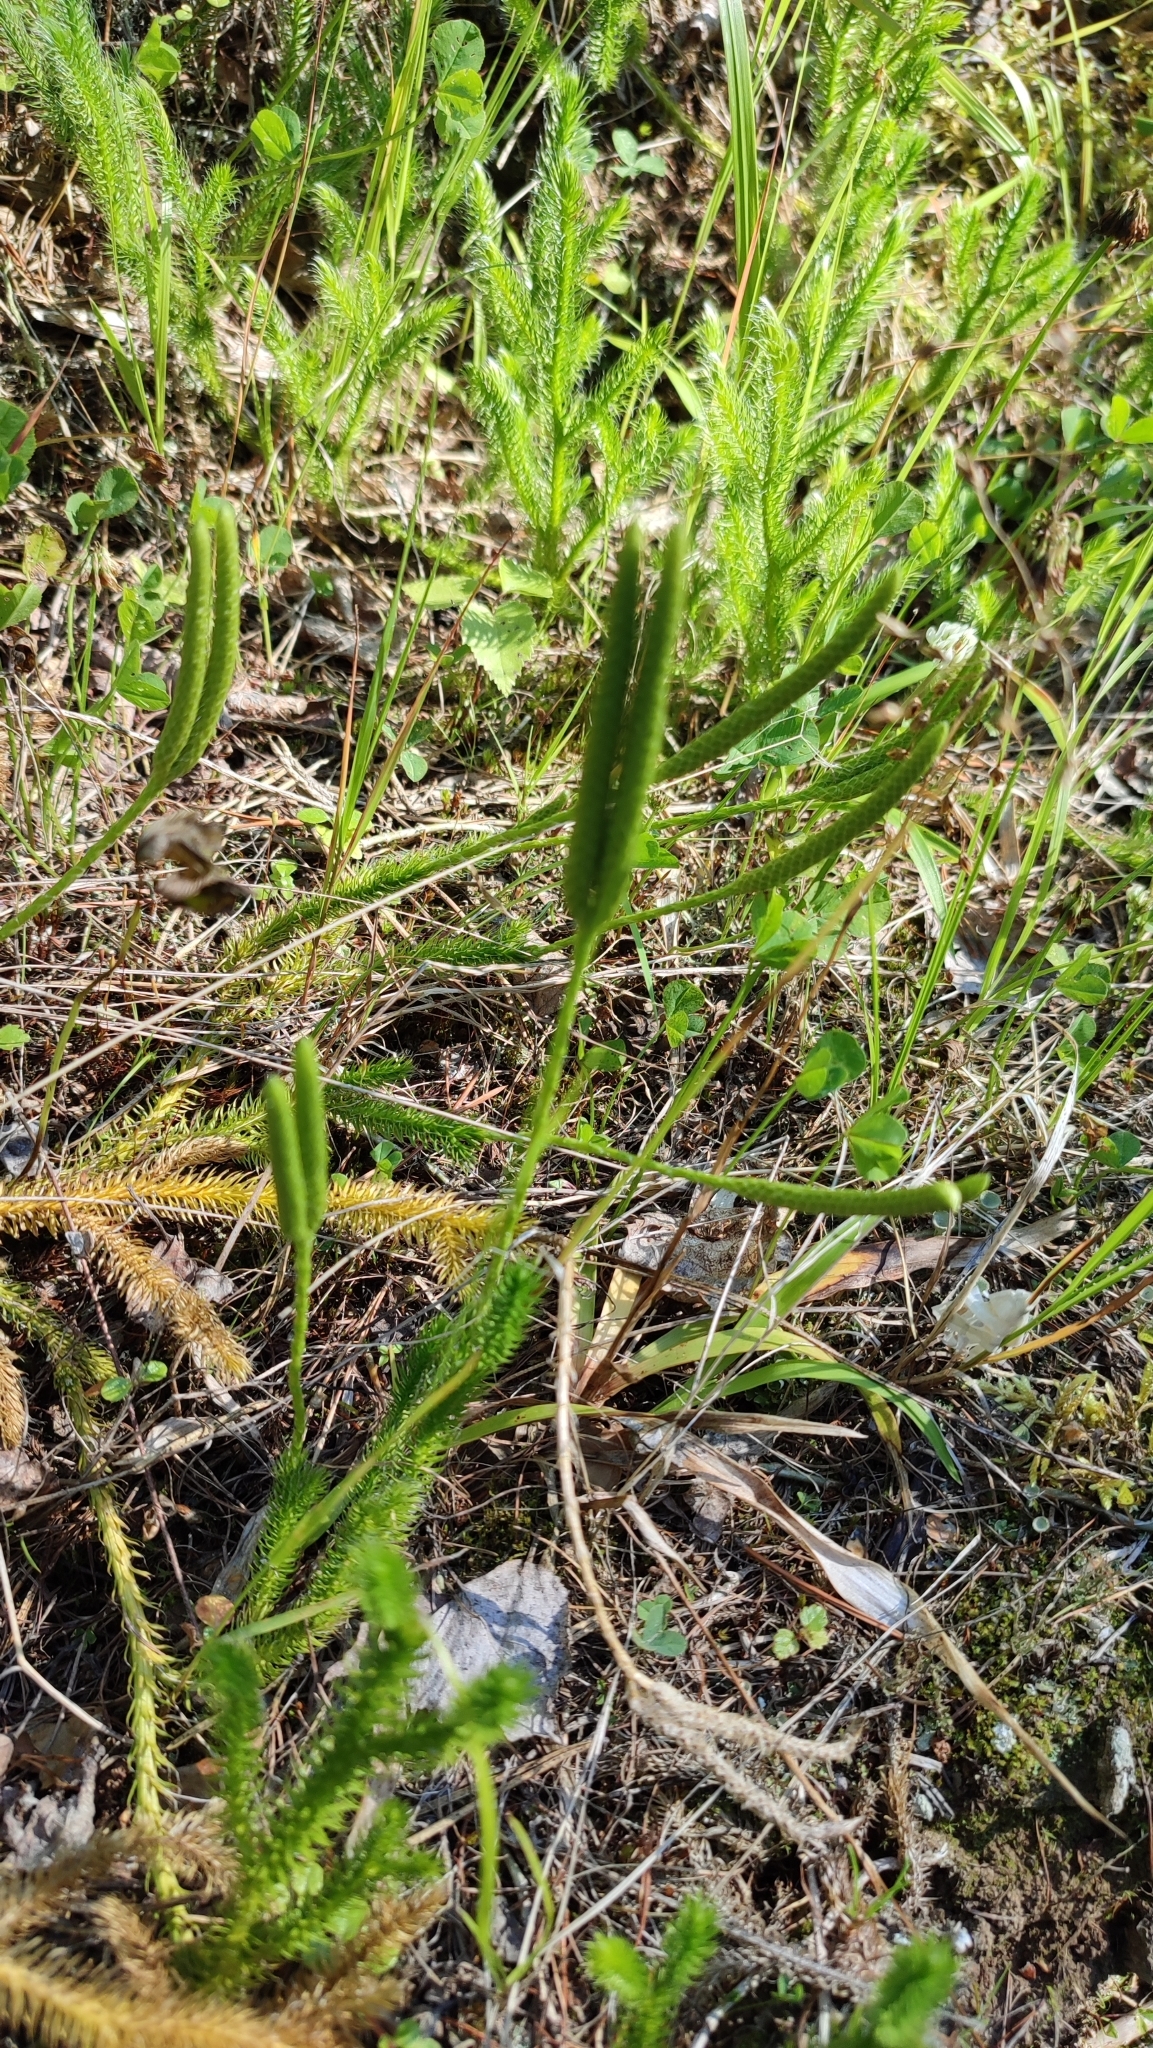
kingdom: Plantae
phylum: Tracheophyta
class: Lycopodiopsida
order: Lycopodiales
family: Lycopodiaceae
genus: Lycopodium
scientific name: Lycopodium clavatum
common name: Stag's-horn clubmoss
